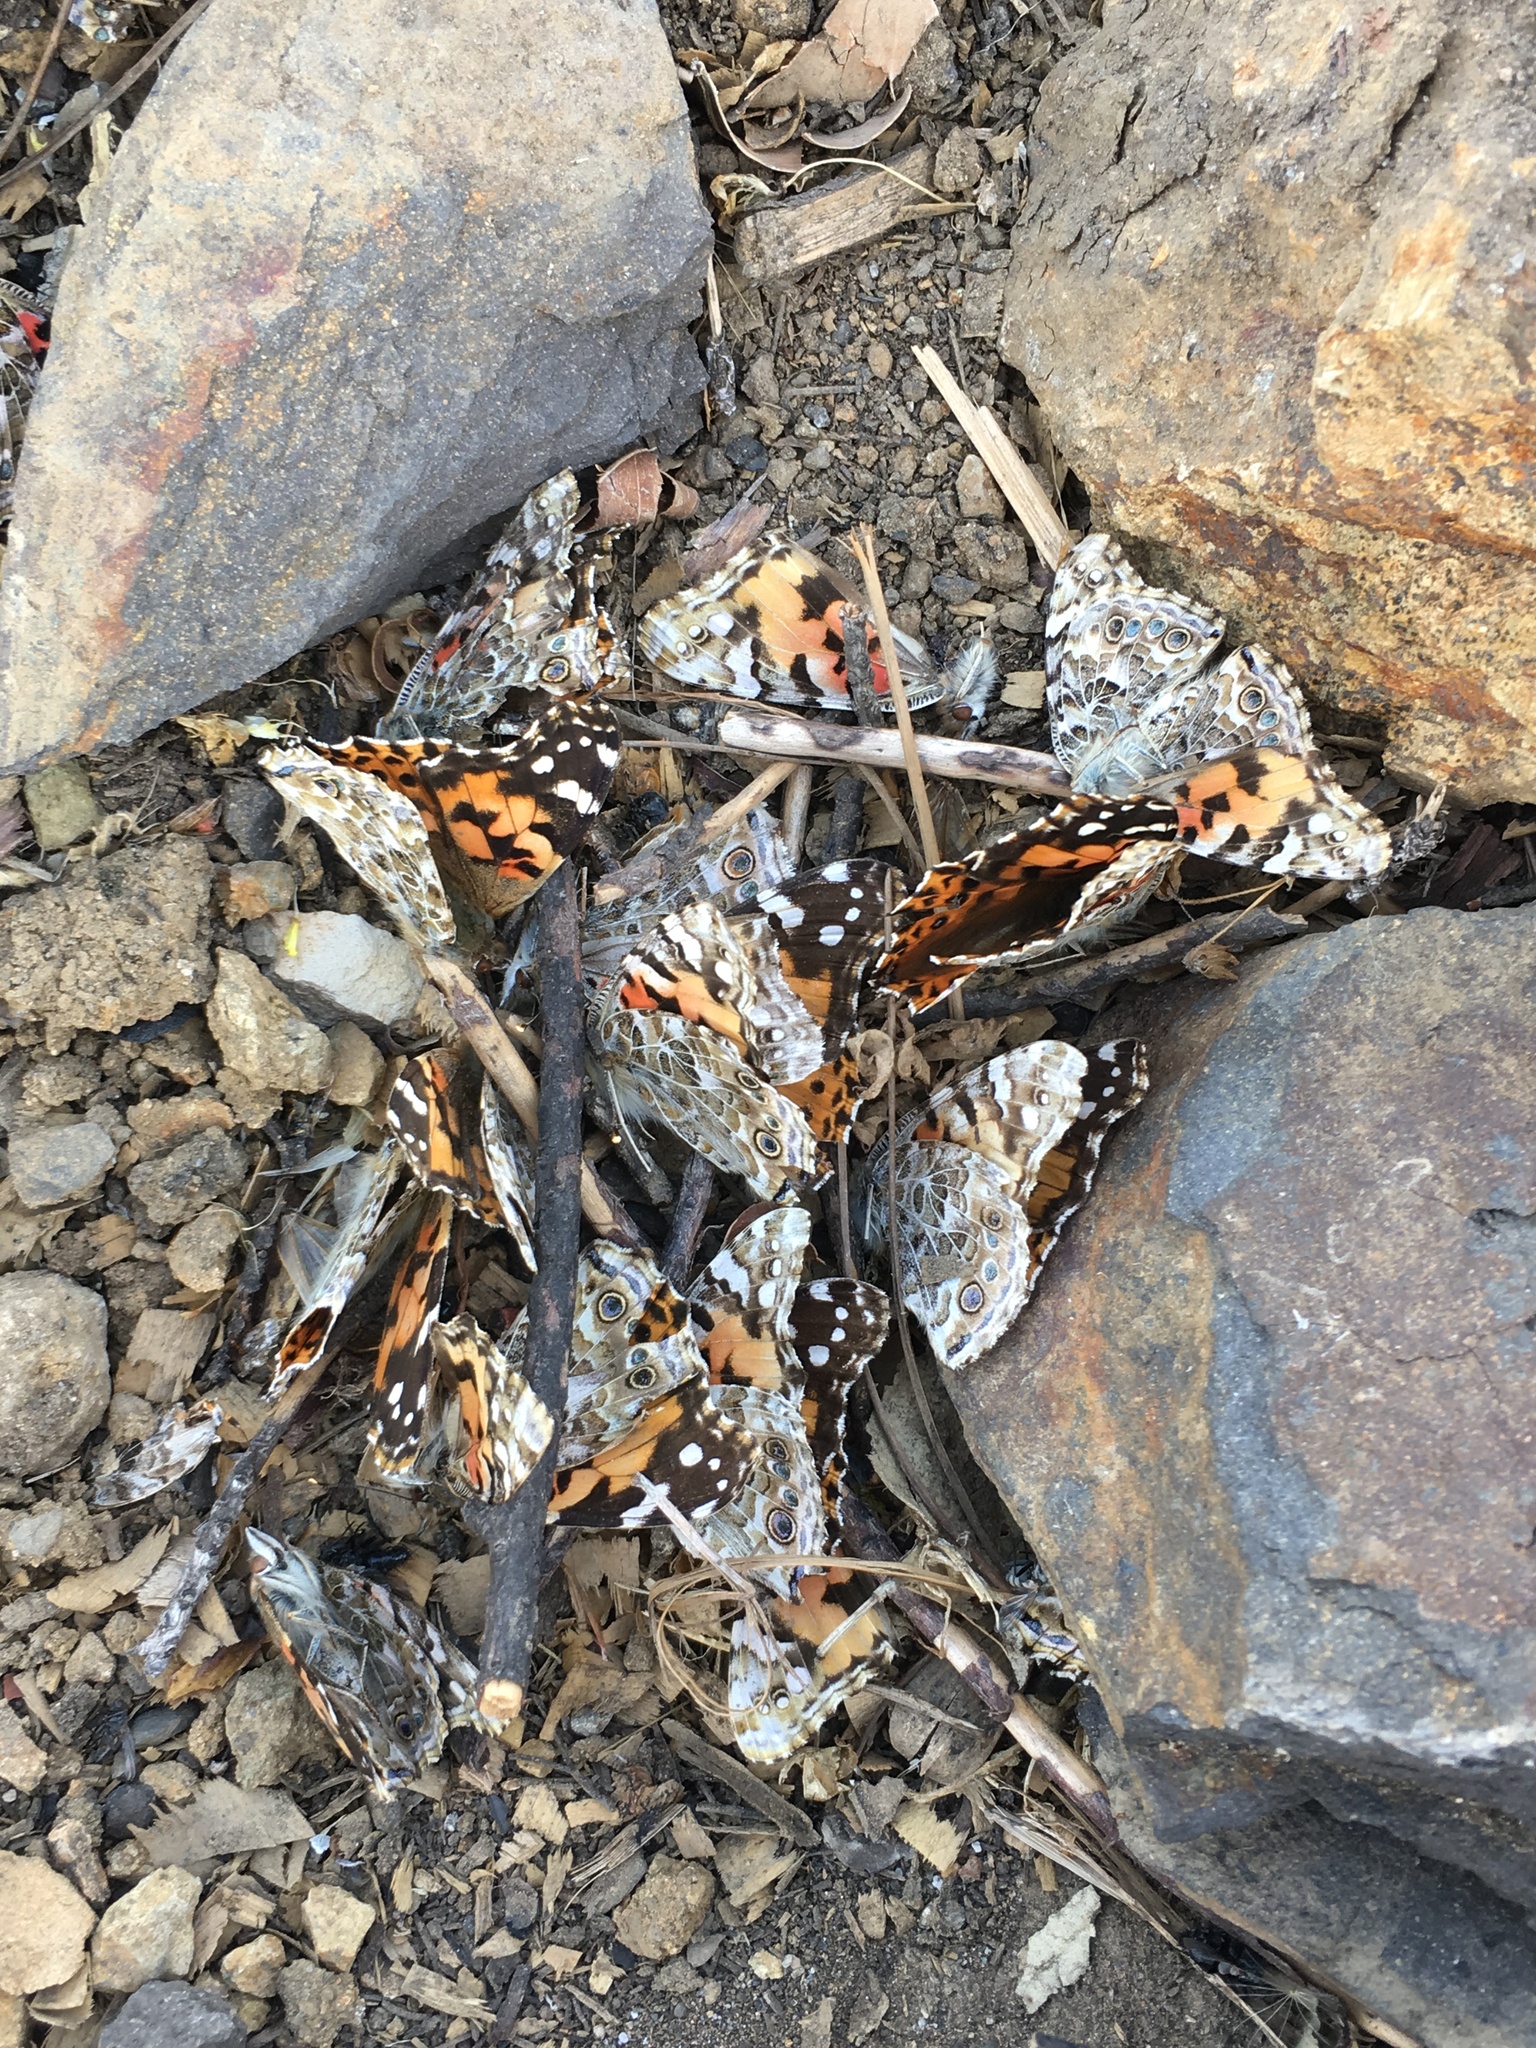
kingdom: Animalia
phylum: Arthropoda
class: Insecta
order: Lepidoptera
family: Nymphalidae
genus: Vanessa
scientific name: Vanessa cardui
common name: Painted lady
